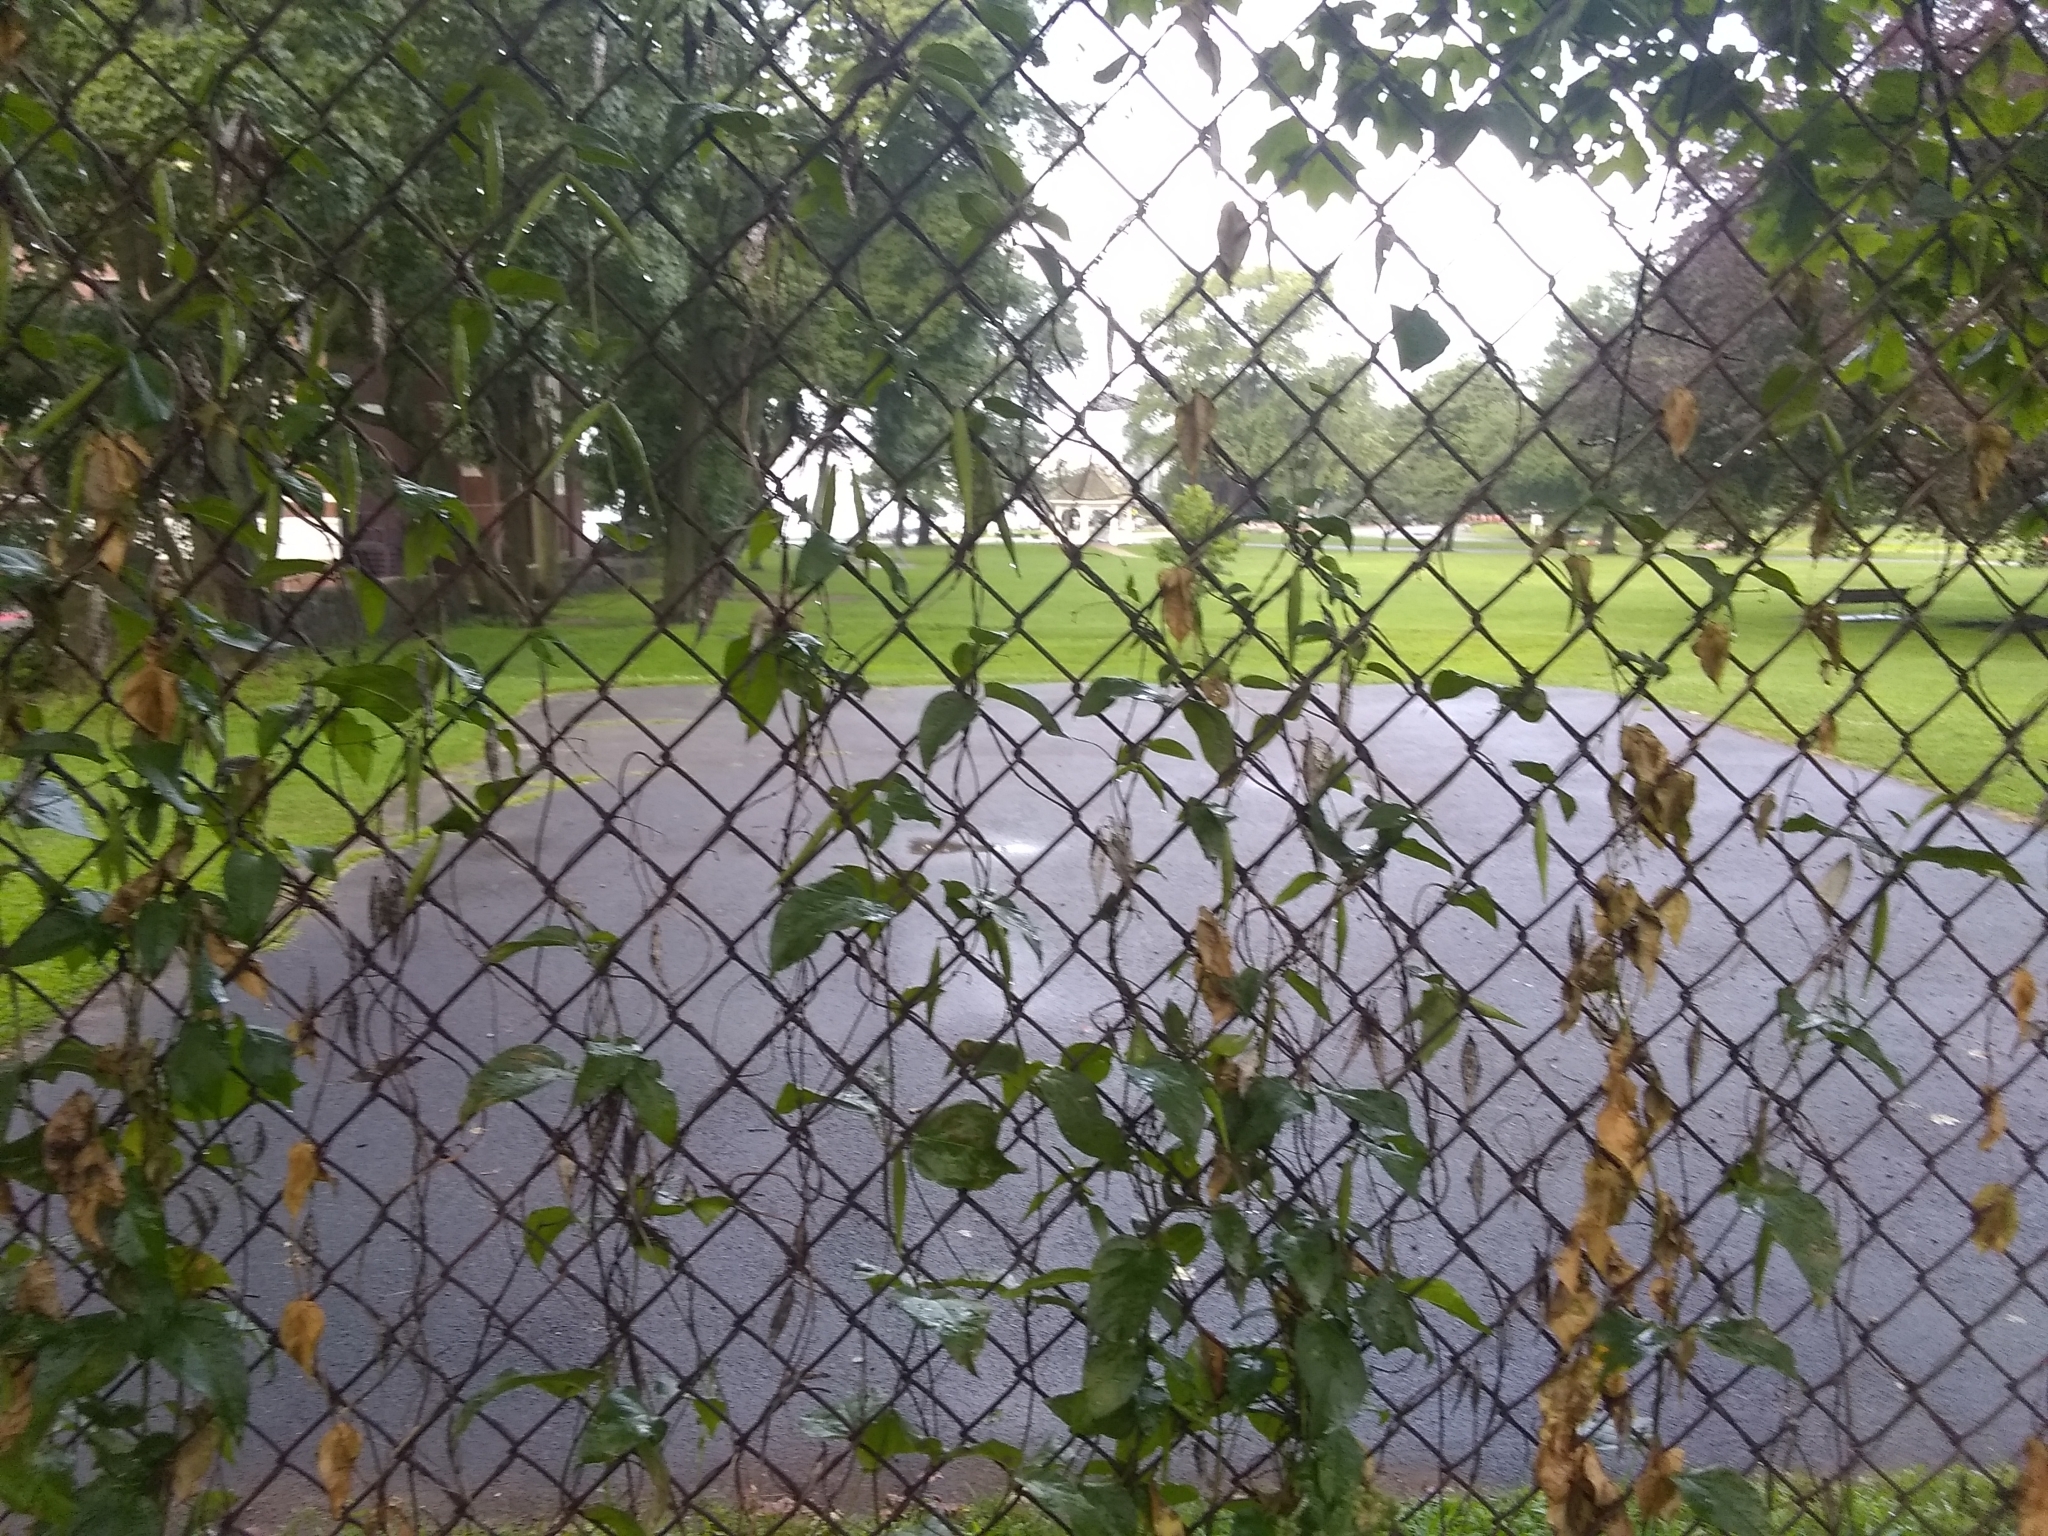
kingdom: Plantae
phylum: Tracheophyta
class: Magnoliopsida
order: Gentianales
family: Apocynaceae
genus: Vincetoxicum
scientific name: Vincetoxicum nigrum
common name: Black swallow-wort
